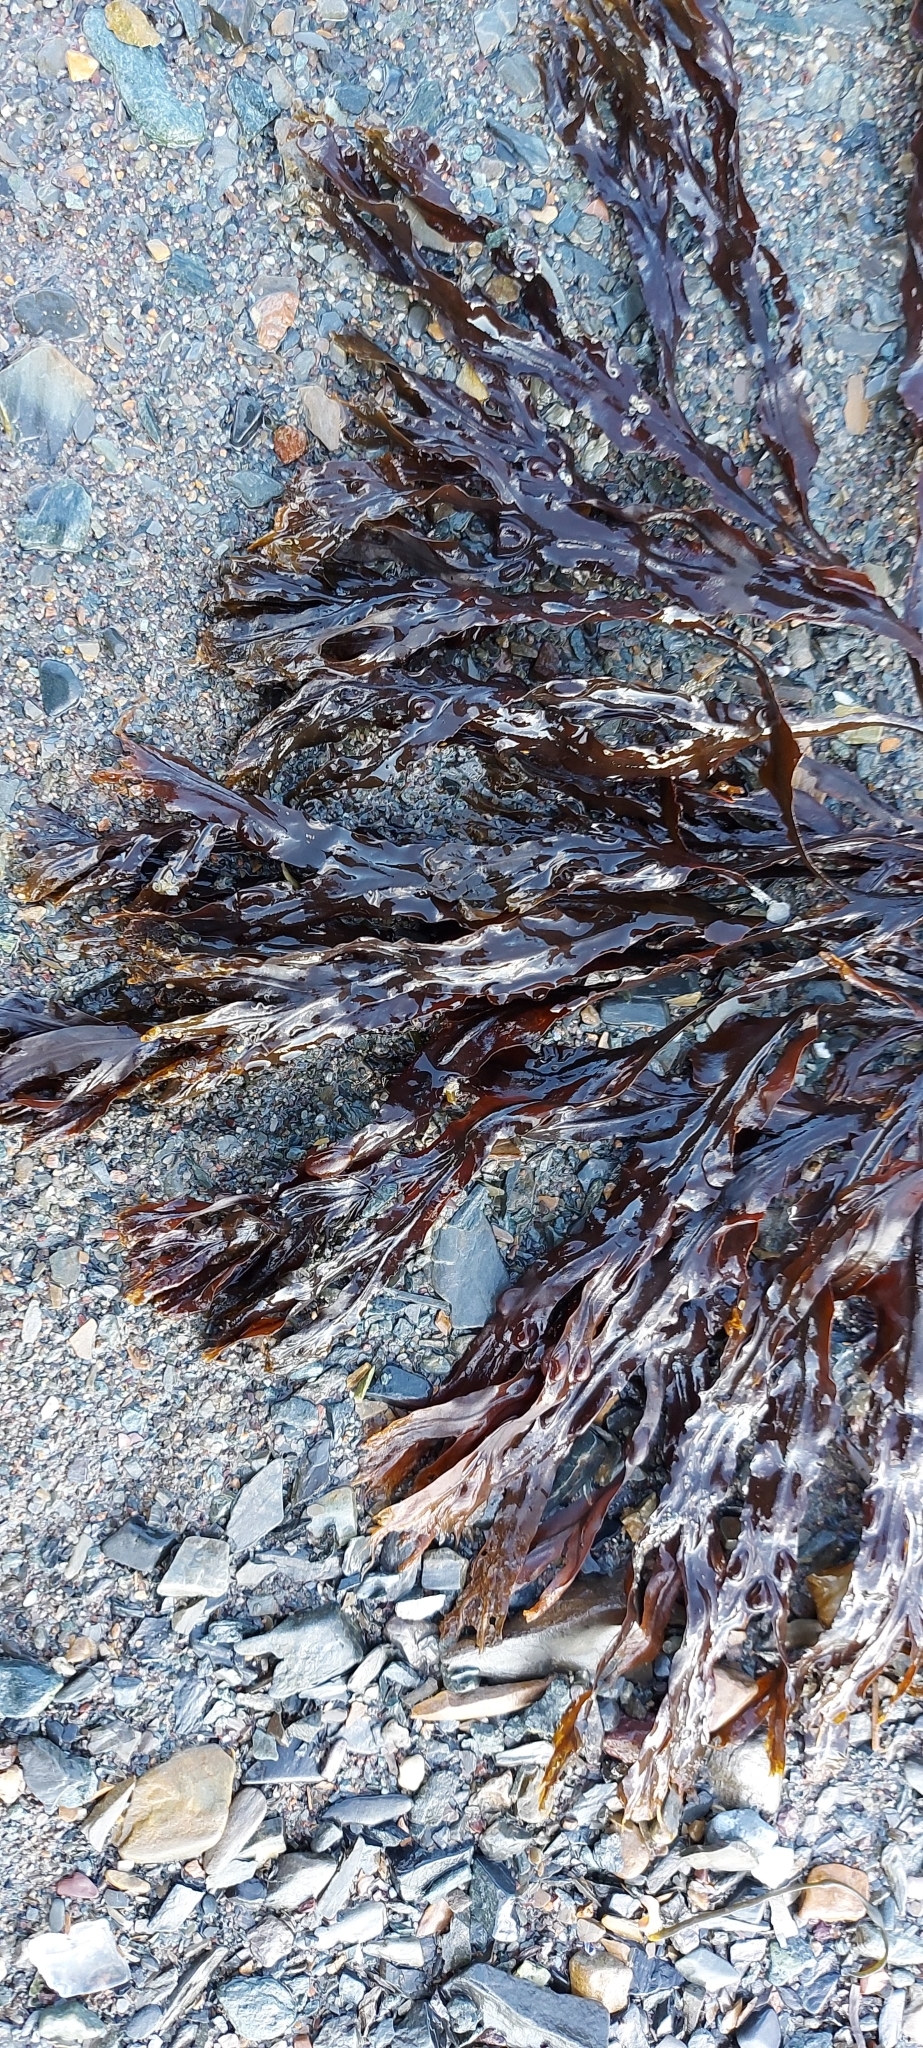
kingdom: Chromista
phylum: Ochrophyta
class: Phaeophyceae
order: Fucales
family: Fucaceae
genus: Fucus
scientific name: Fucus vesiculosus
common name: Bladder wrack
